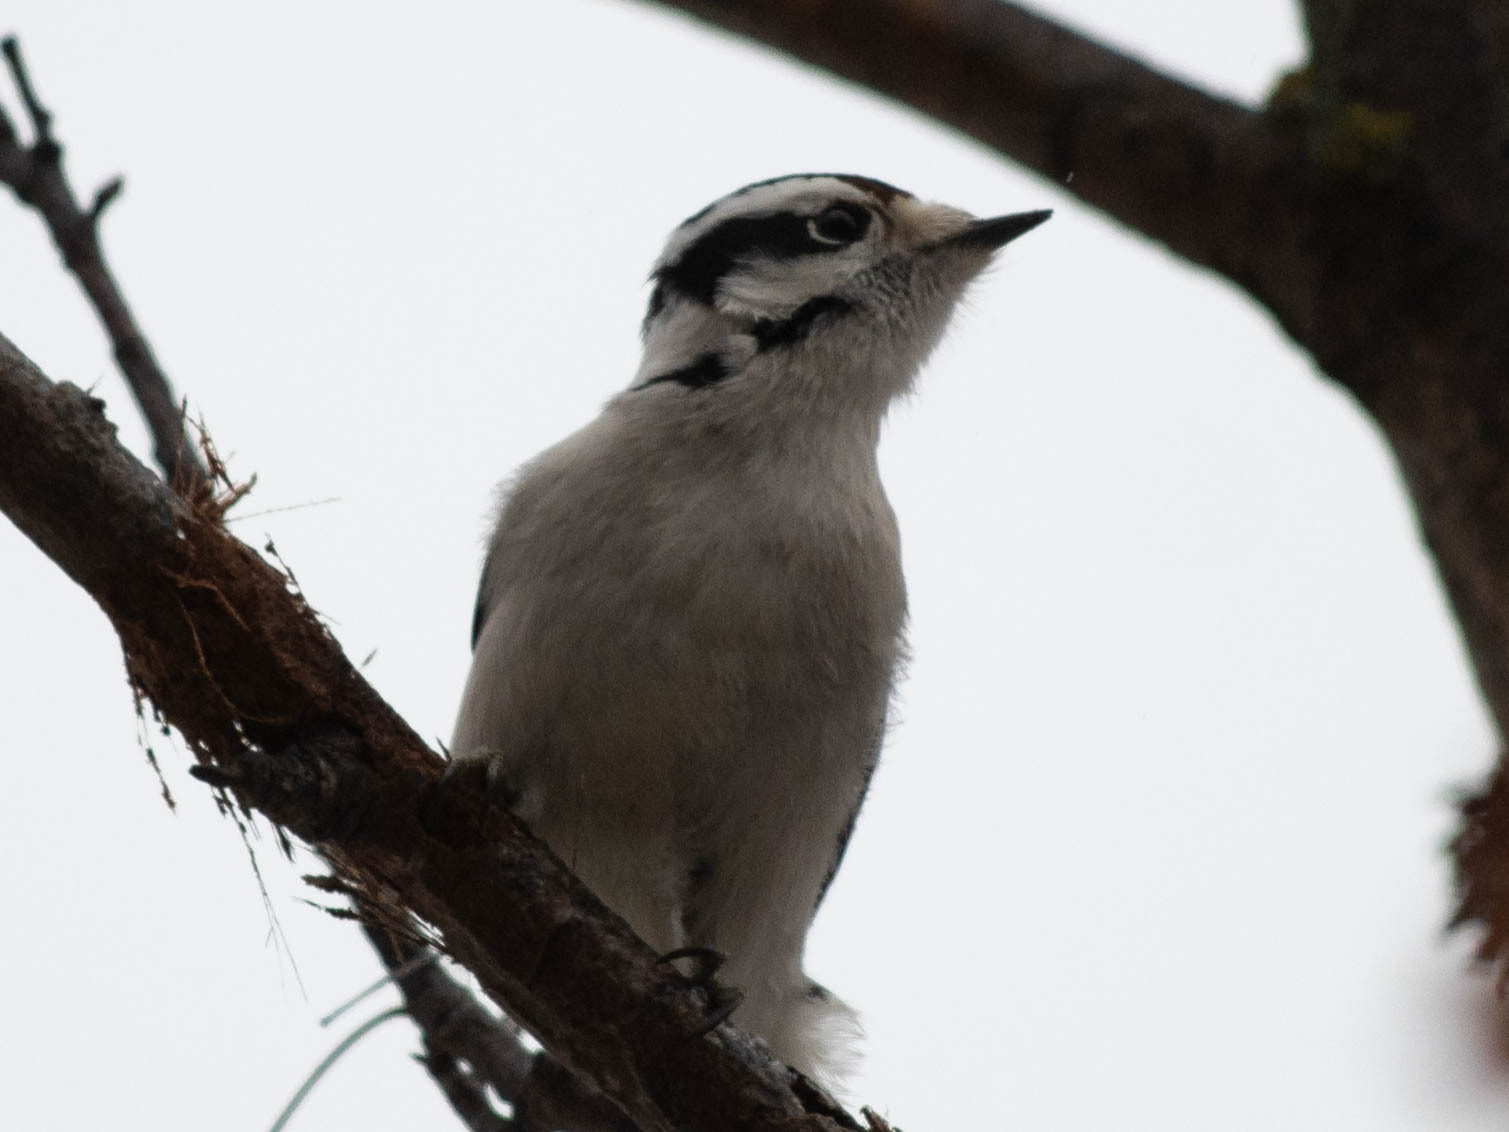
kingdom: Animalia
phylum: Chordata
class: Aves
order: Piciformes
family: Picidae
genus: Dryobates
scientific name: Dryobates pubescens
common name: Downy woodpecker
